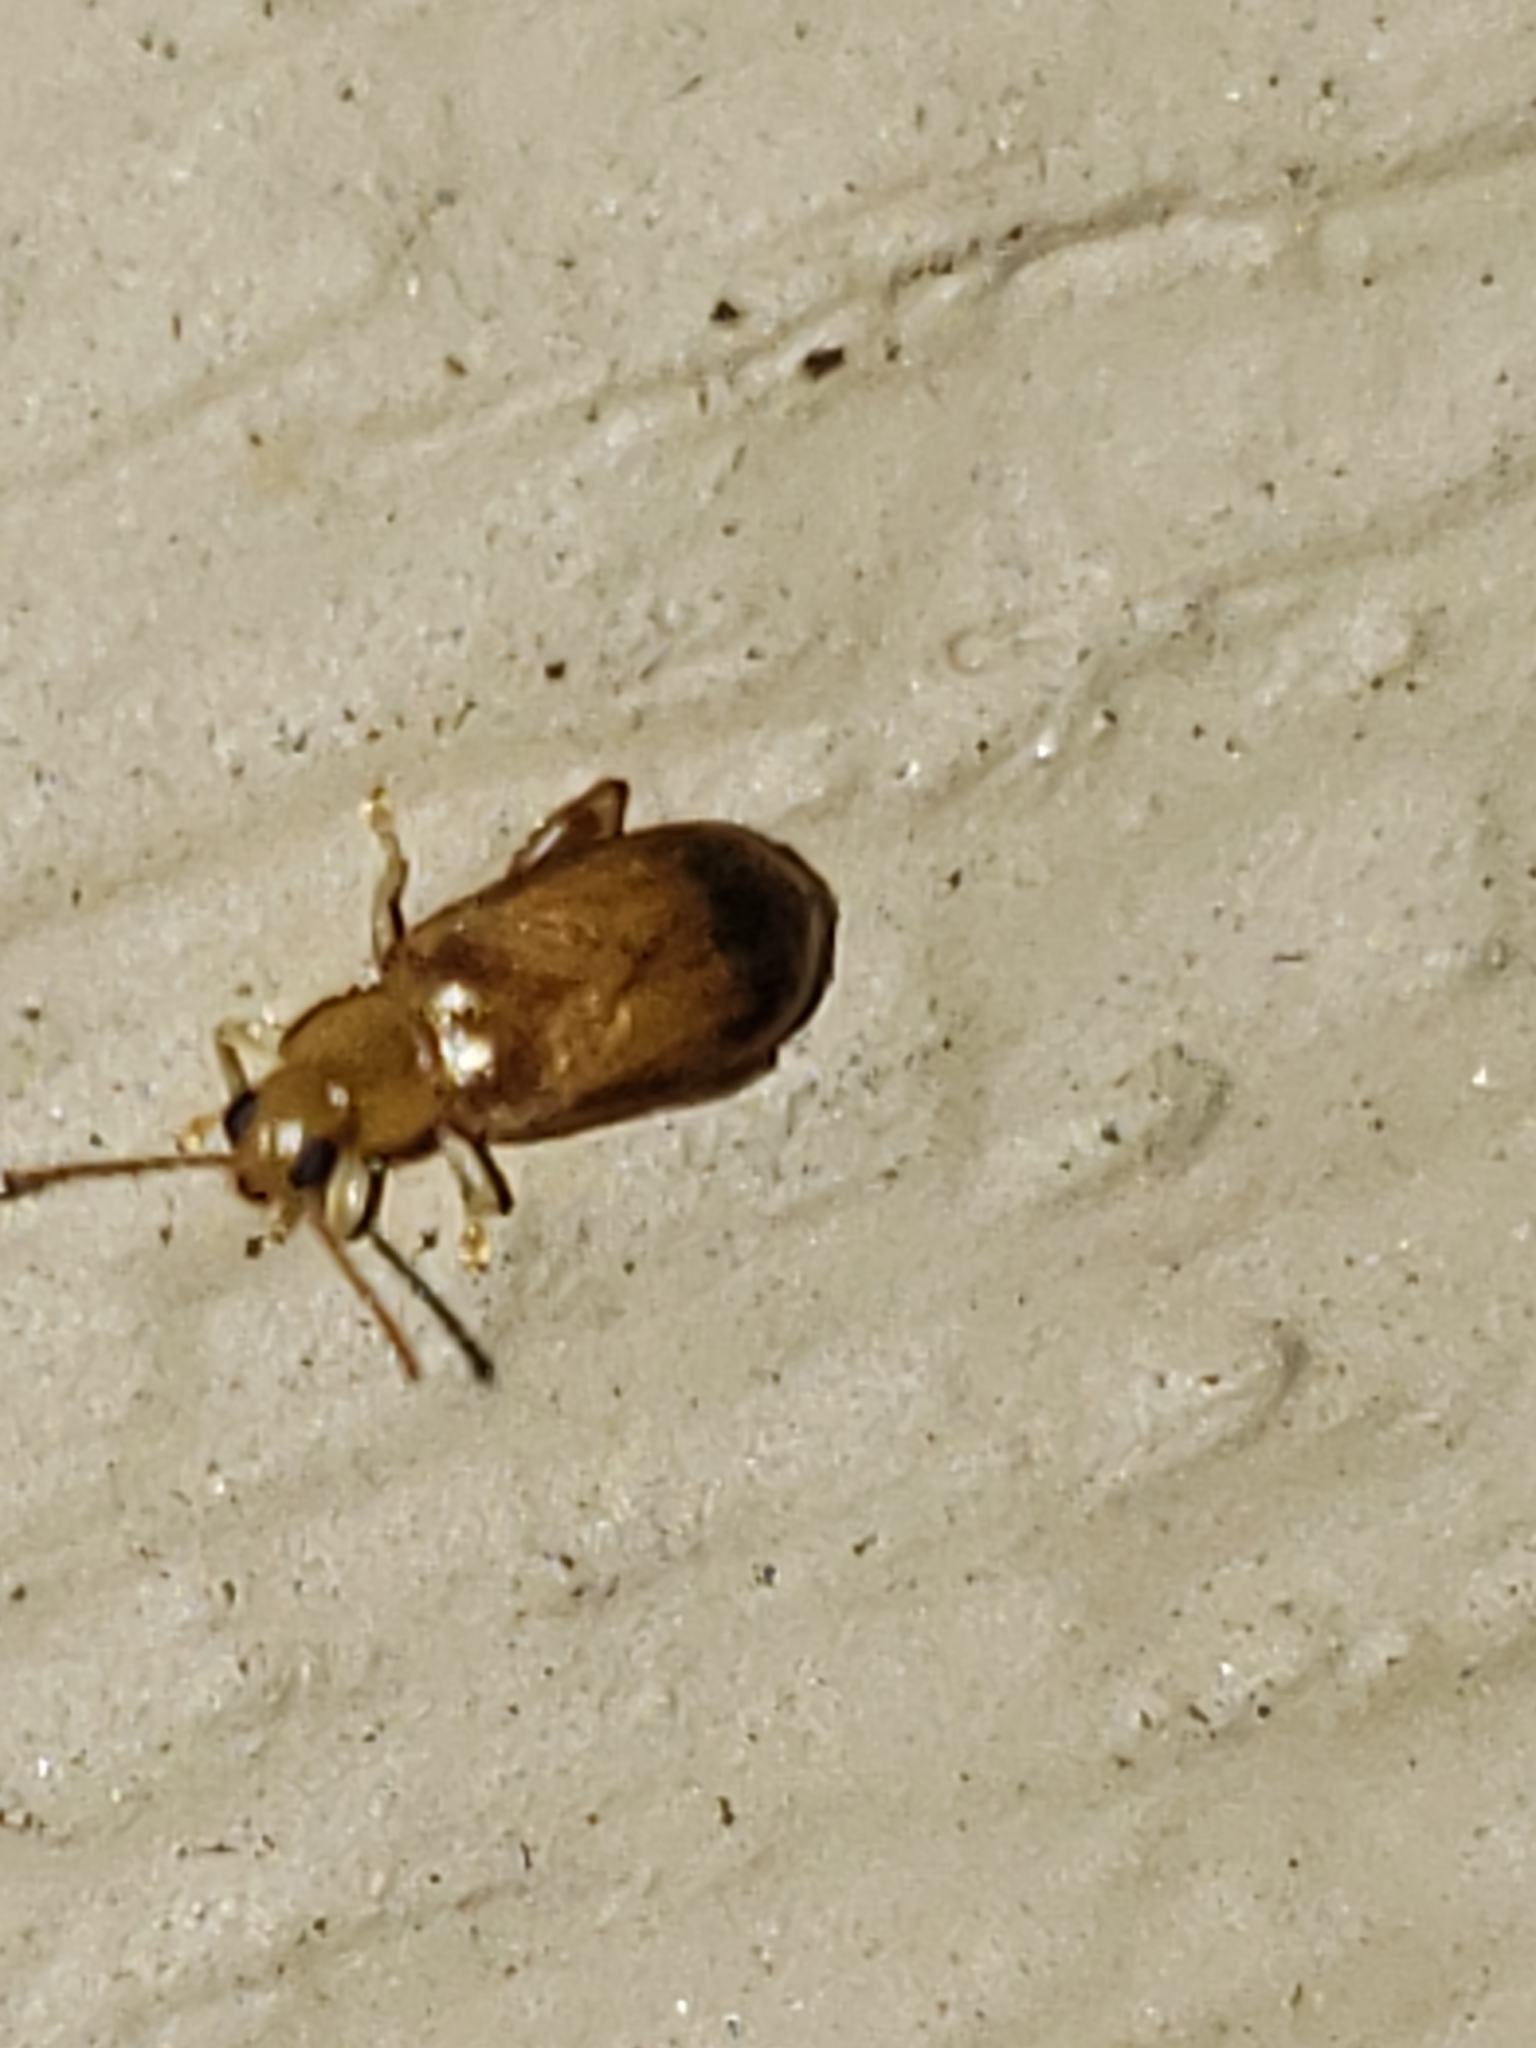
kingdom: Animalia
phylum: Arthropoda
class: Insecta
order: Coleoptera
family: Chrysomelidae
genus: Systena
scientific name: Systena marginalis
